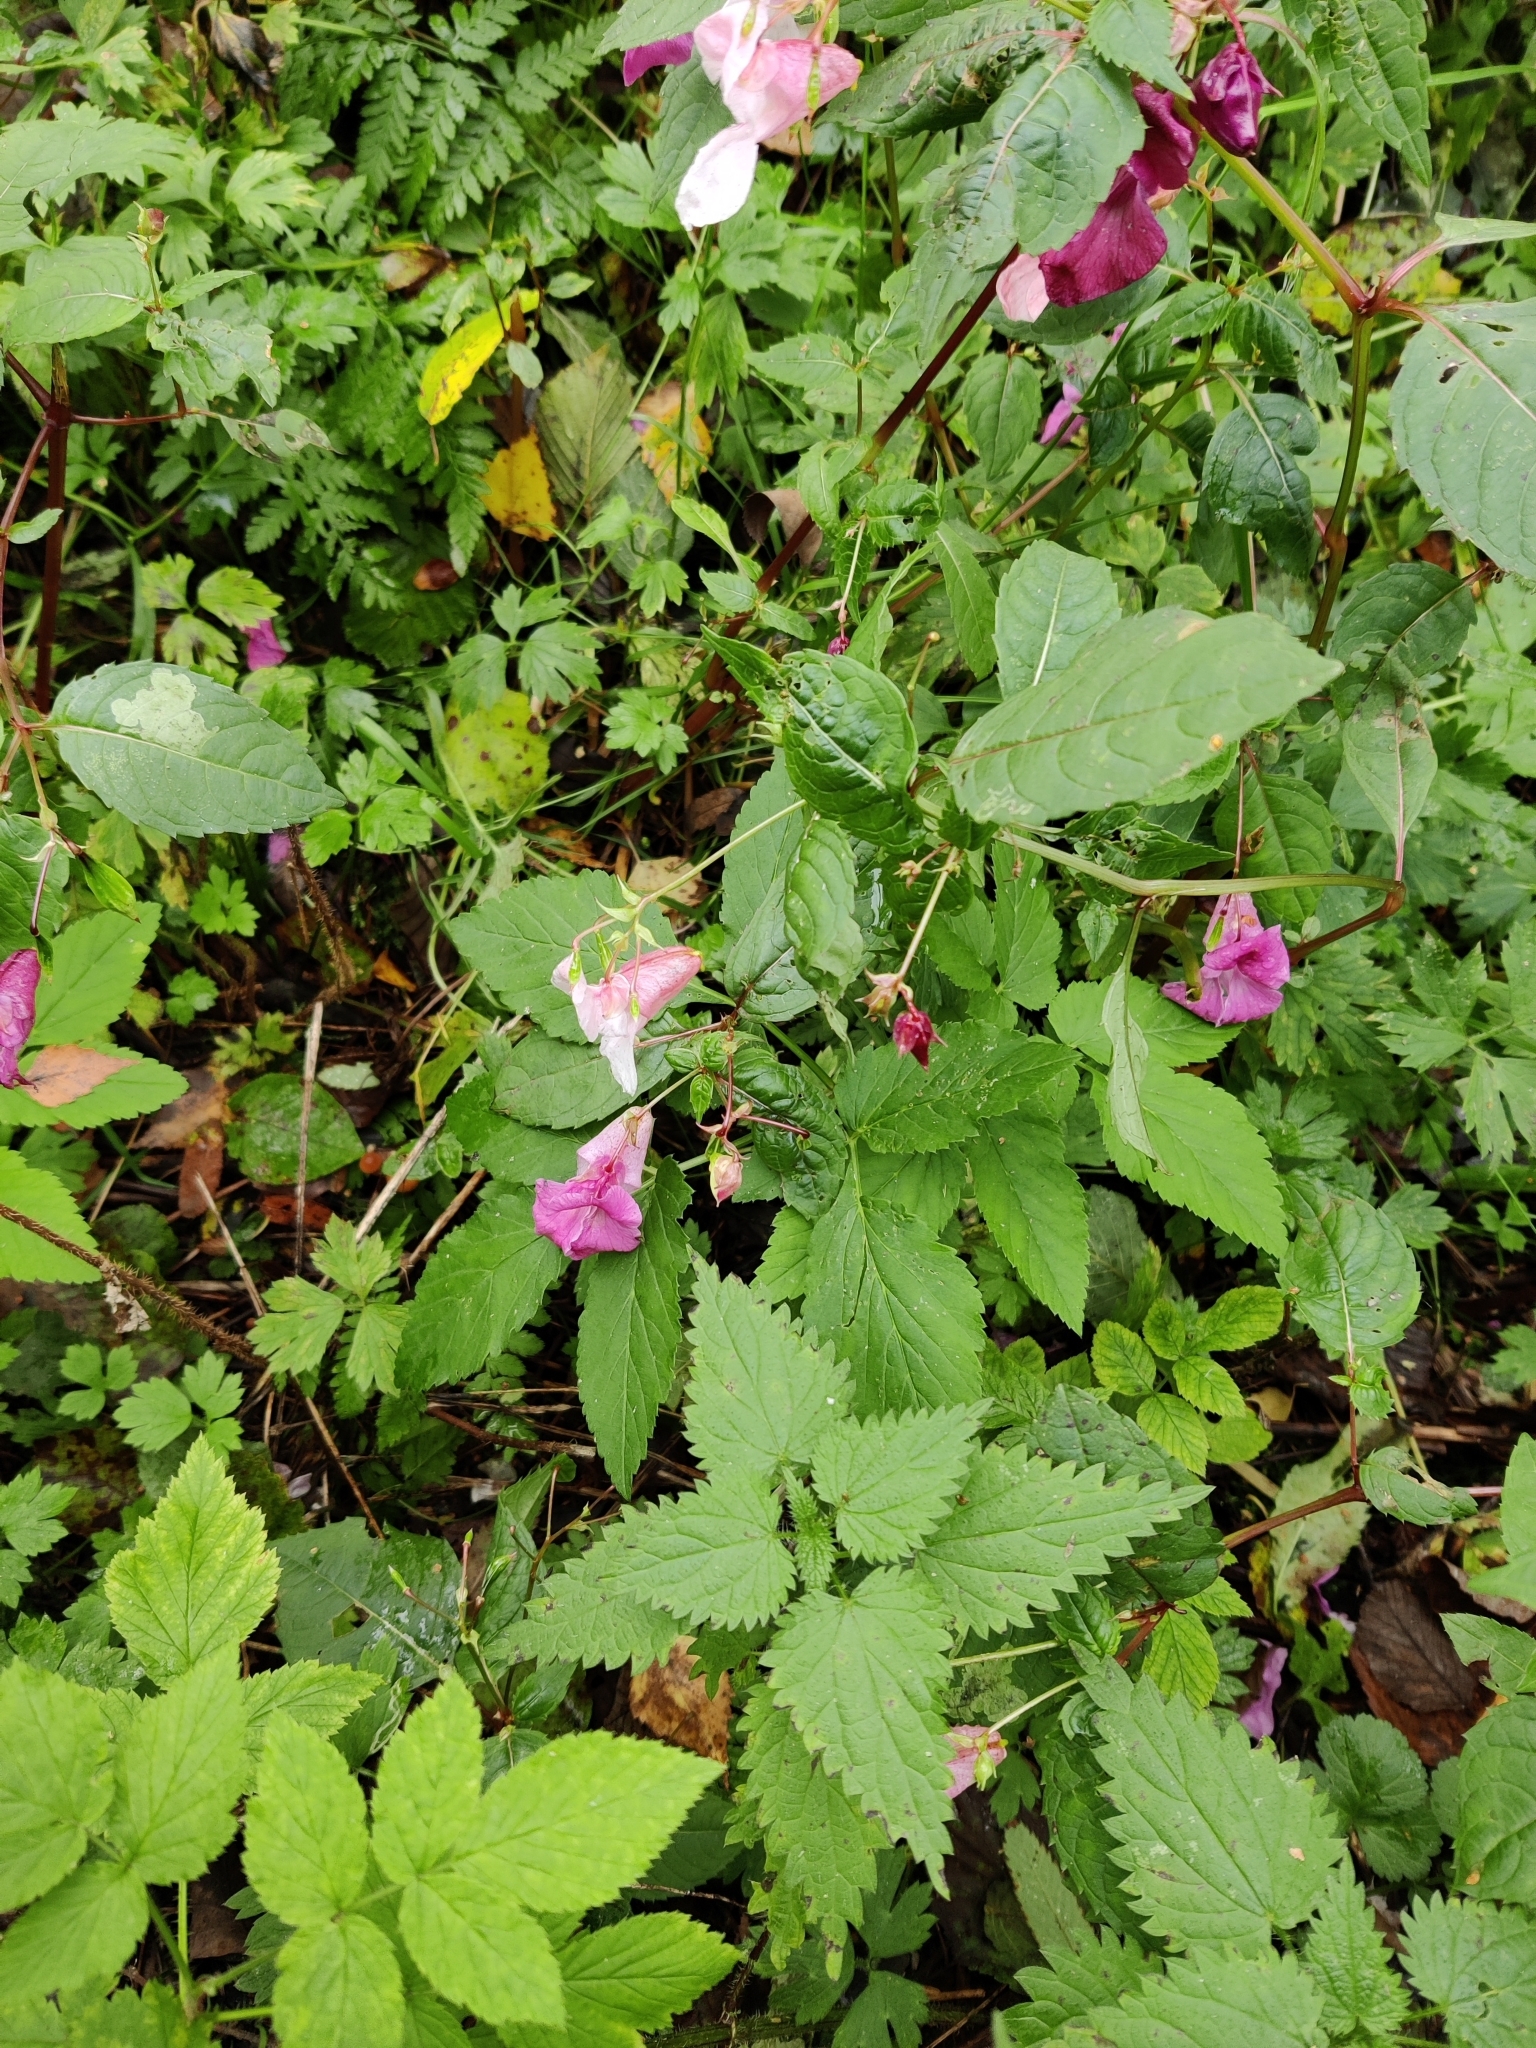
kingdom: Plantae
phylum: Tracheophyta
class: Magnoliopsida
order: Ericales
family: Balsaminaceae
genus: Impatiens
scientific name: Impatiens glandulifera
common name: Himalayan balsam
